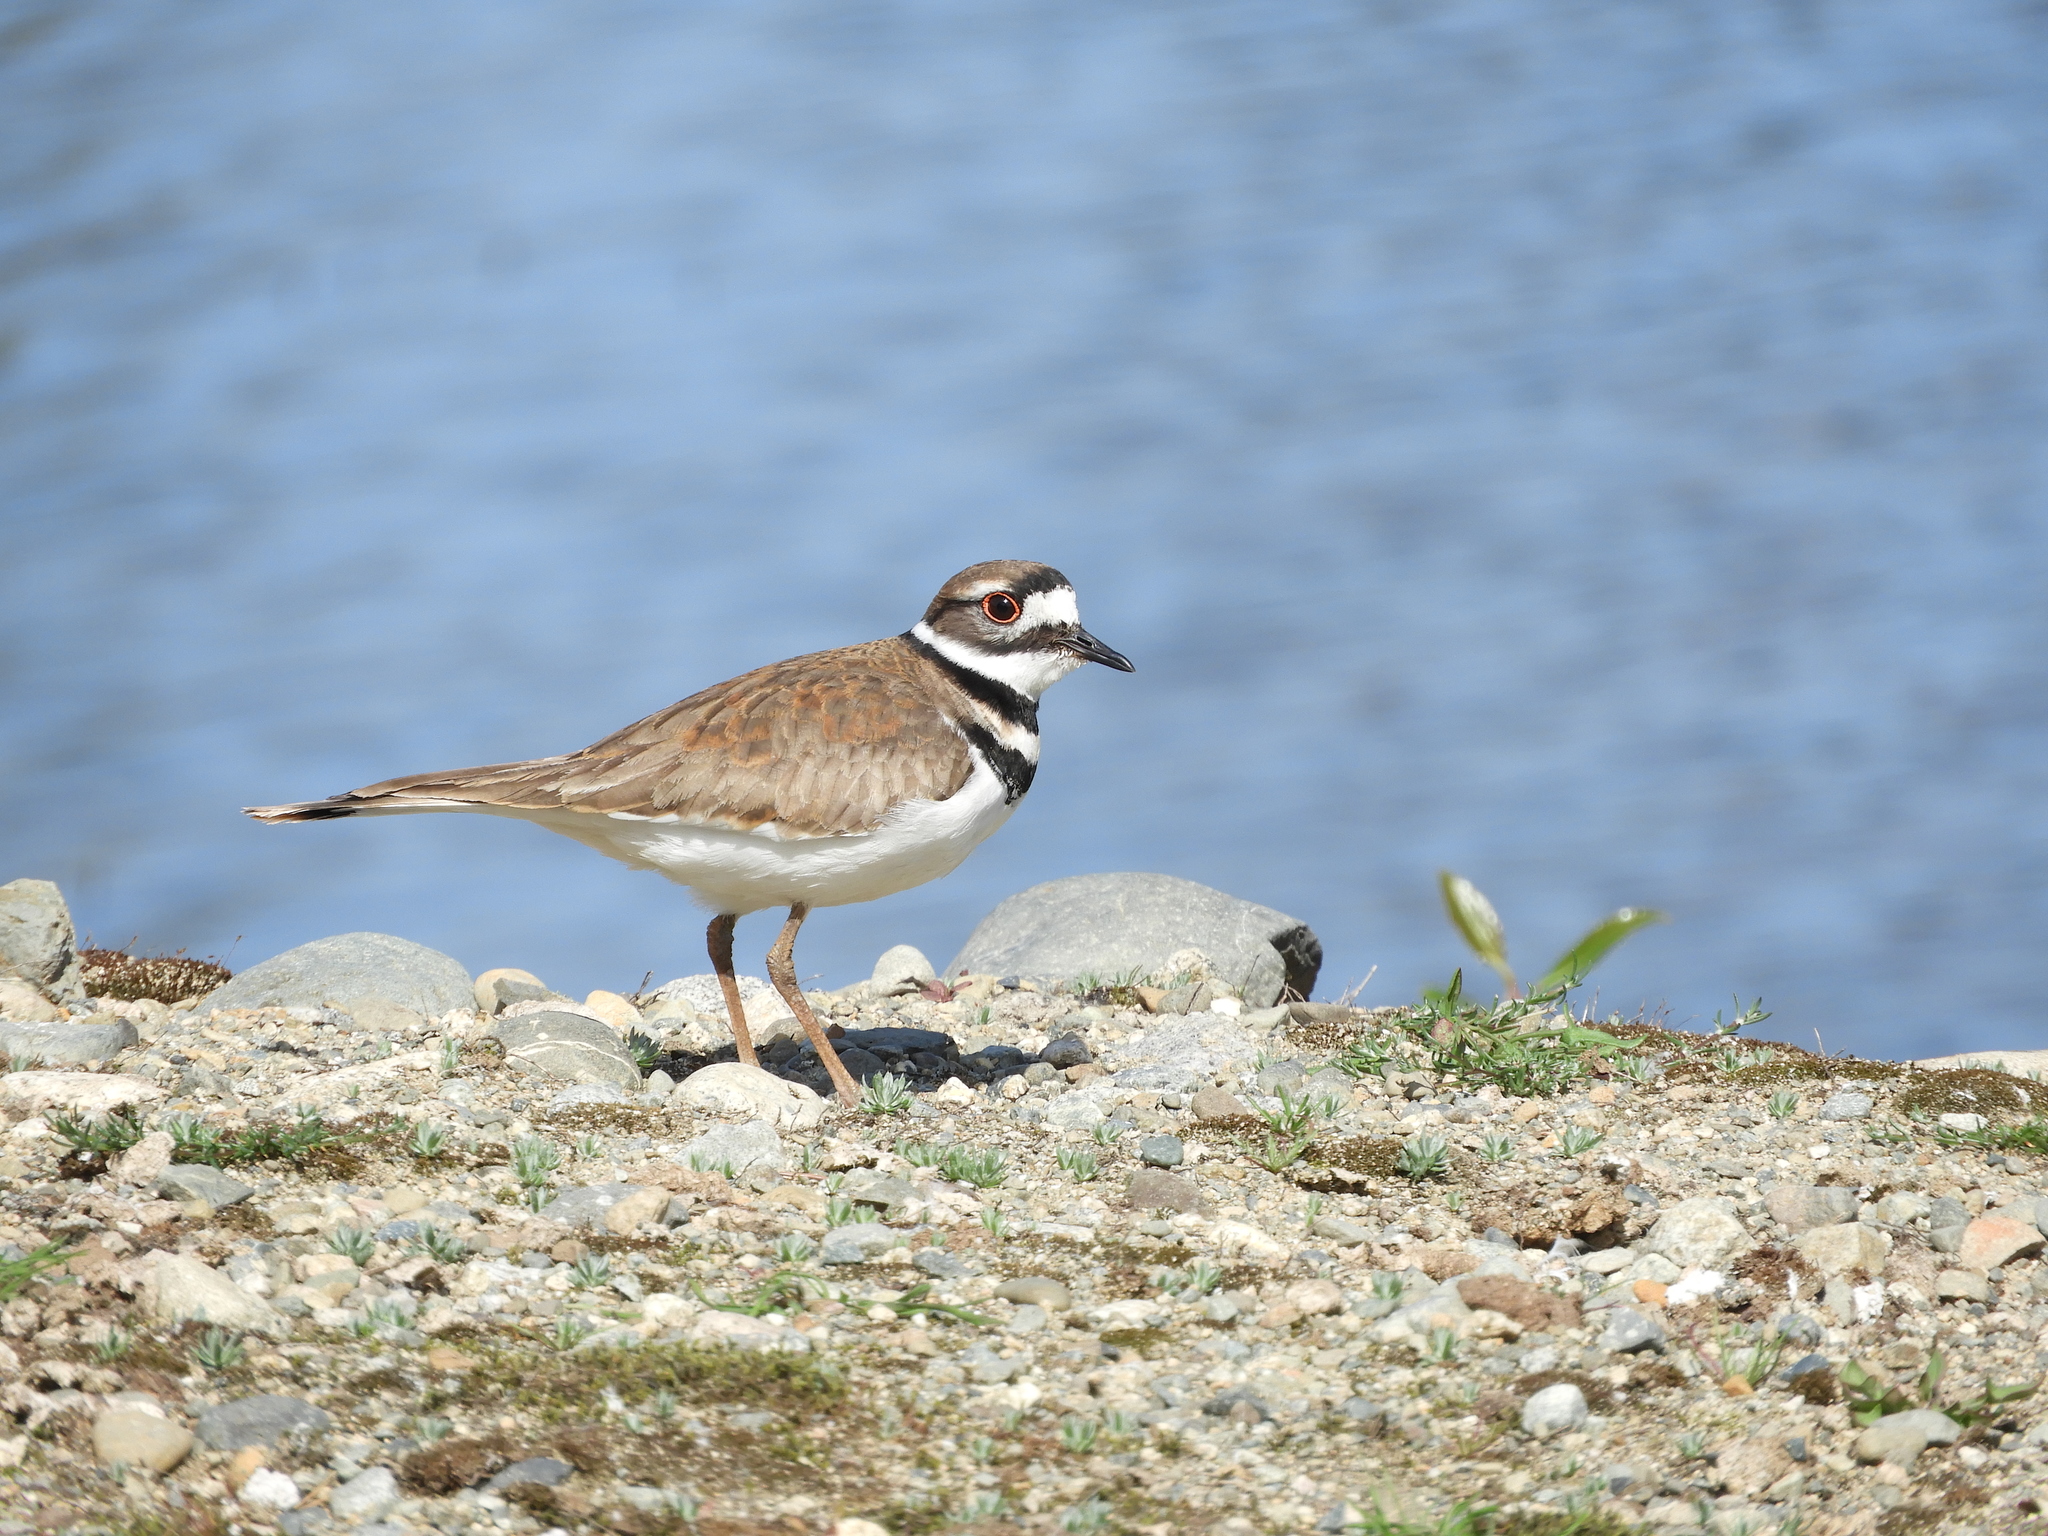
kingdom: Animalia
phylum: Chordata
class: Aves
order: Charadriiformes
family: Charadriidae
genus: Charadrius
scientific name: Charadrius vociferus
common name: Killdeer
